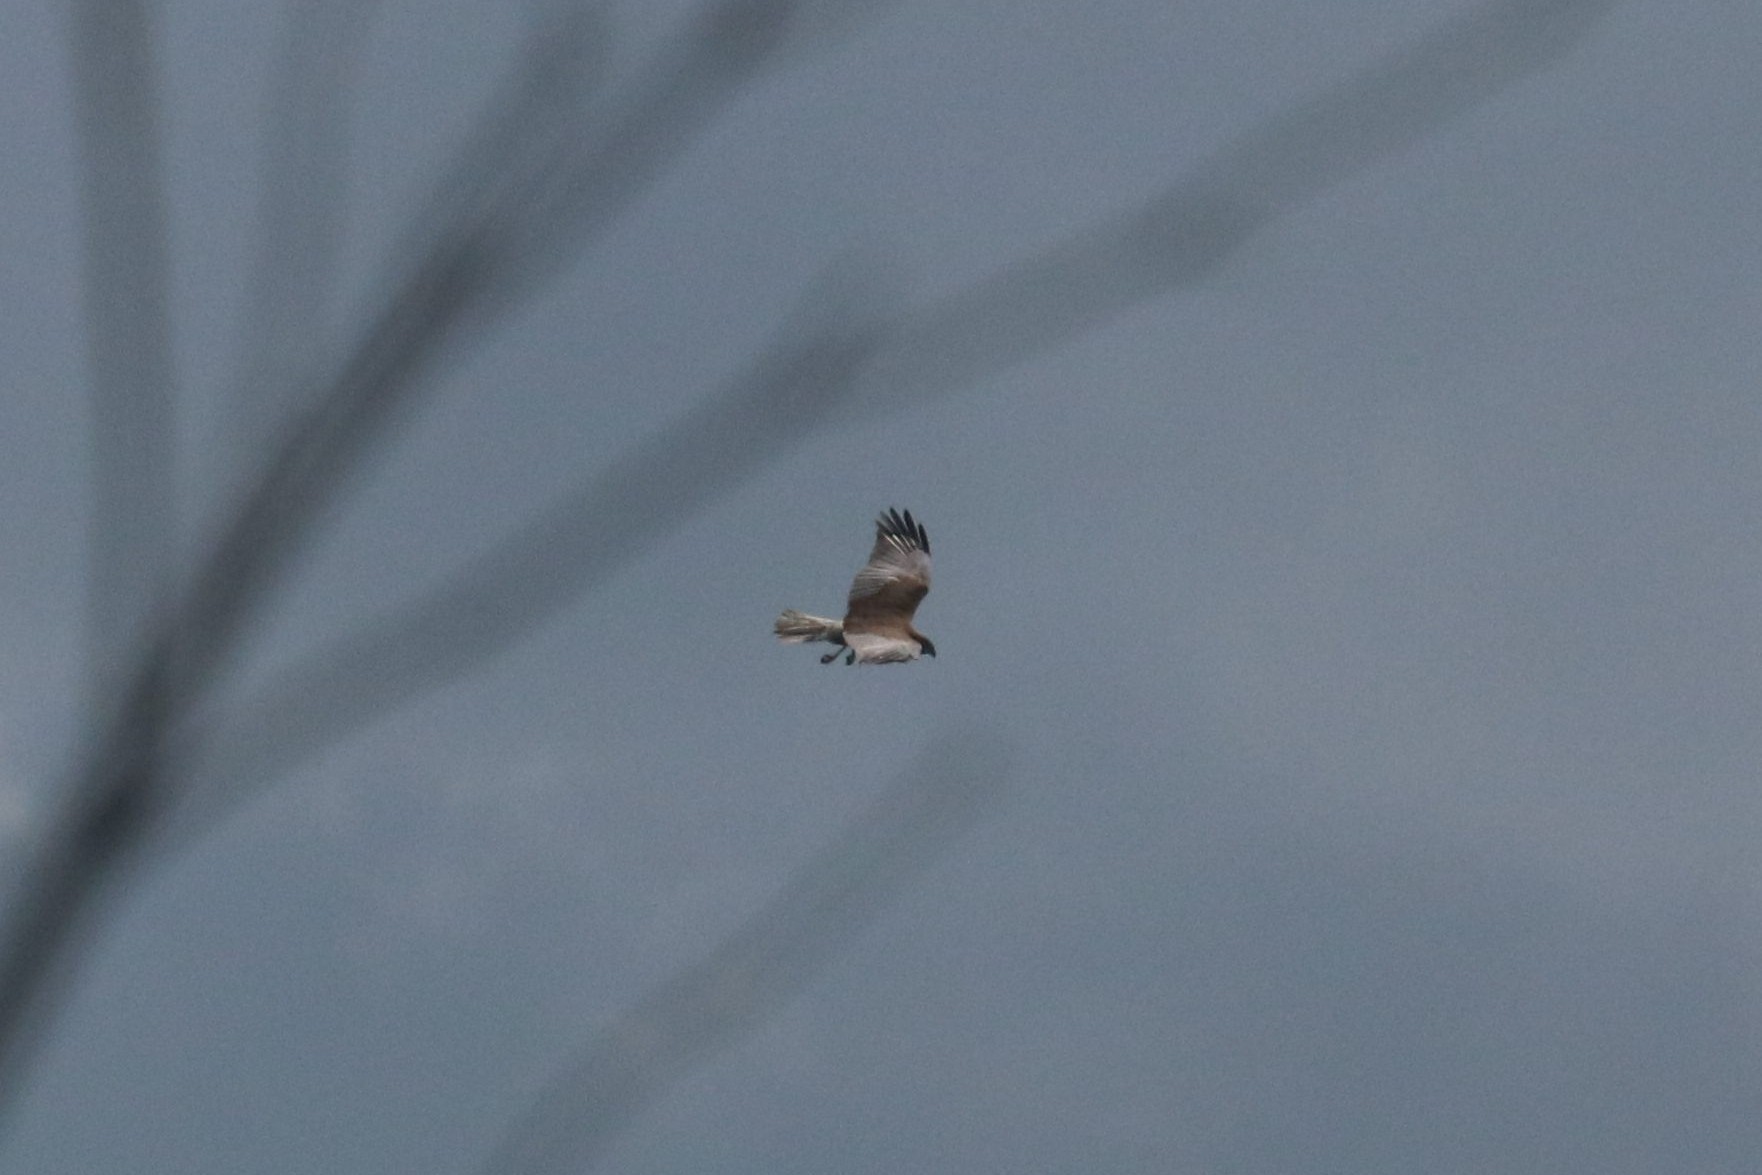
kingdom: Animalia
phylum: Chordata
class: Aves
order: Accipitriformes
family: Accipitridae
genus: Circus
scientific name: Circus aeruginosus
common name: Western marsh harrier
